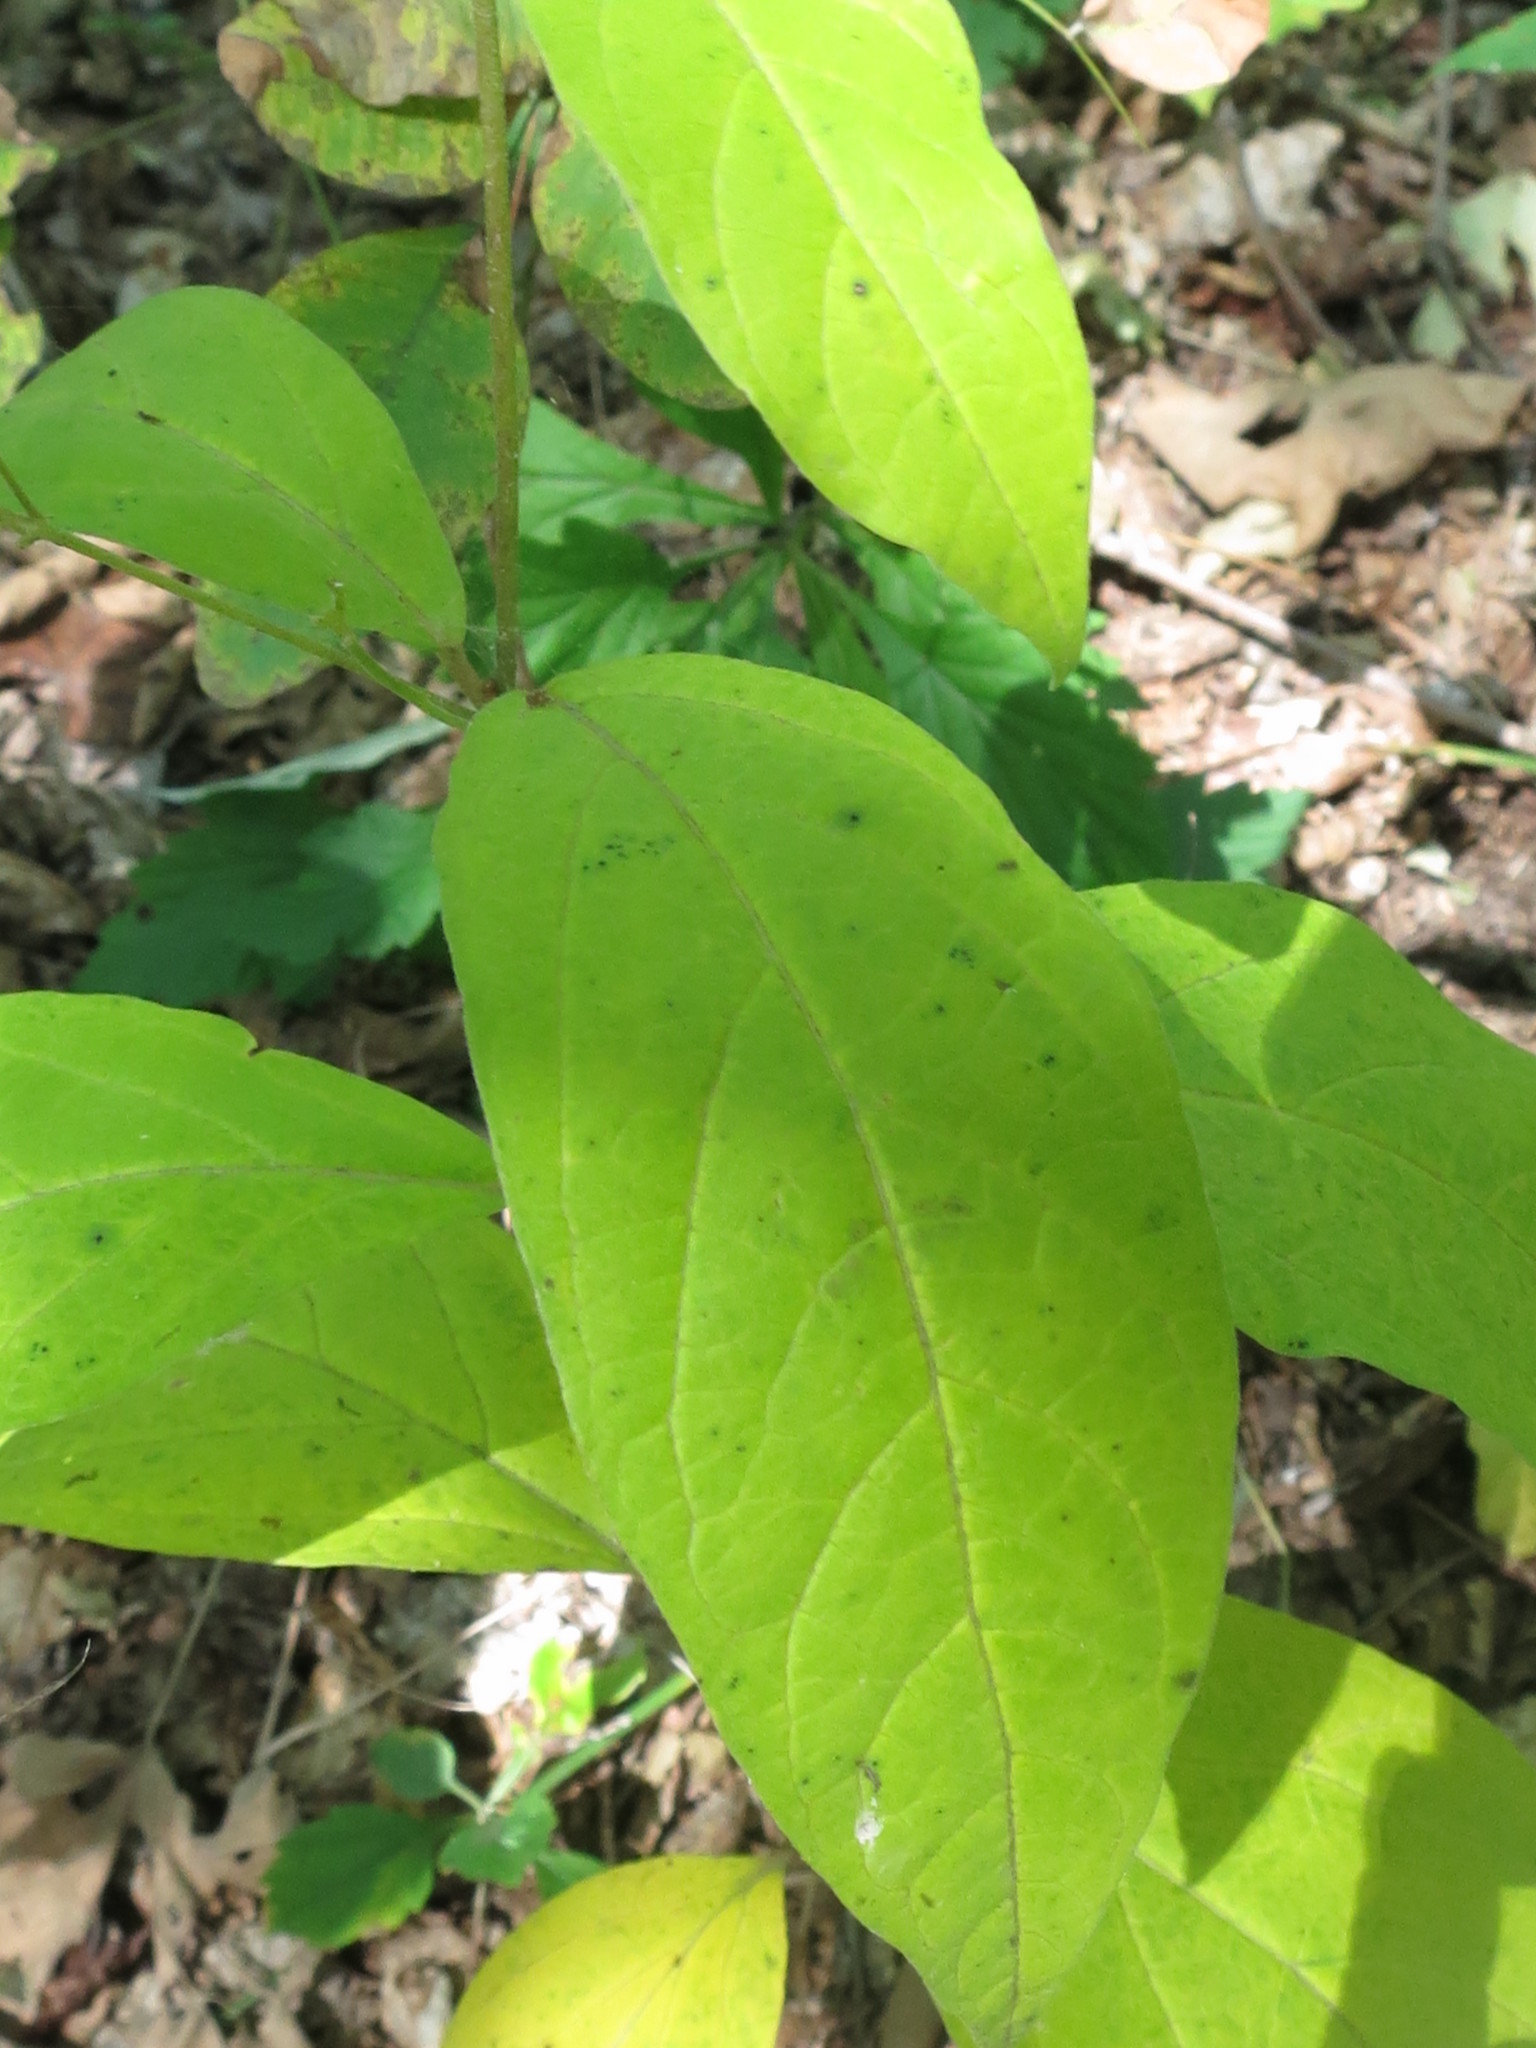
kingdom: Plantae
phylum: Tracheophyta
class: Magnoliopsida
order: Gentianales
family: Apocynaceae
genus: Vincetoxicum
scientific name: Vincetoxicum ascyrifolium
